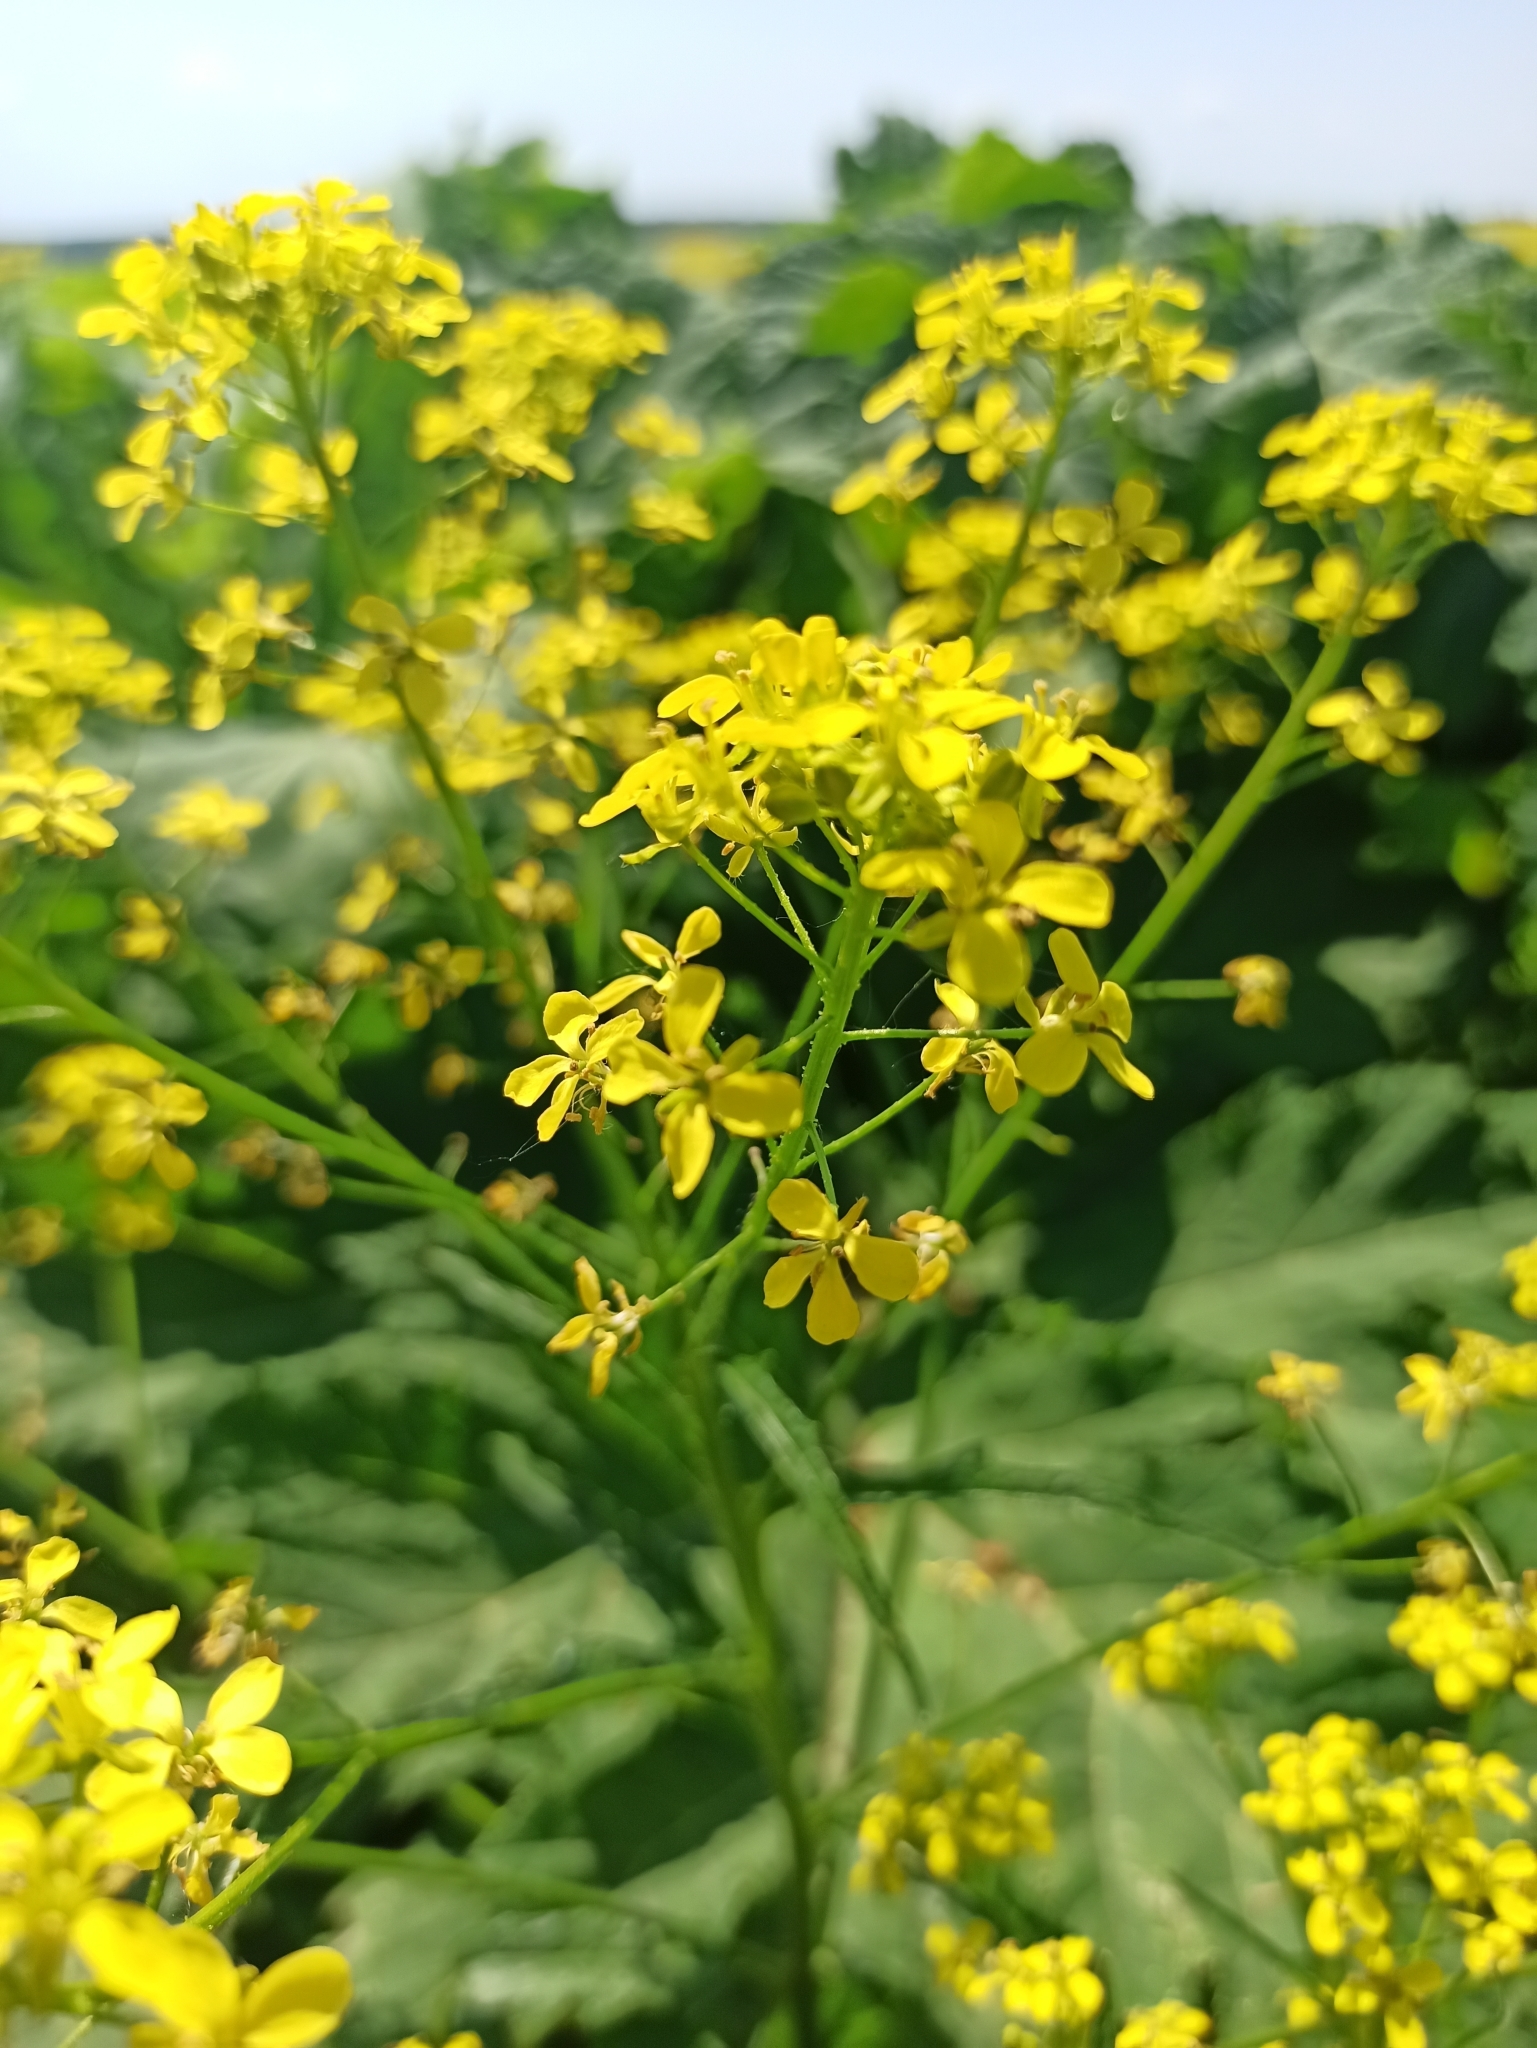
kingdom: Plantae
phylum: Tracheophyta
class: Magnoliopsida
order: Brassicales
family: Brassicaceae
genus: Bunias
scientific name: Bunias orientalis
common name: Warty-cabbage
